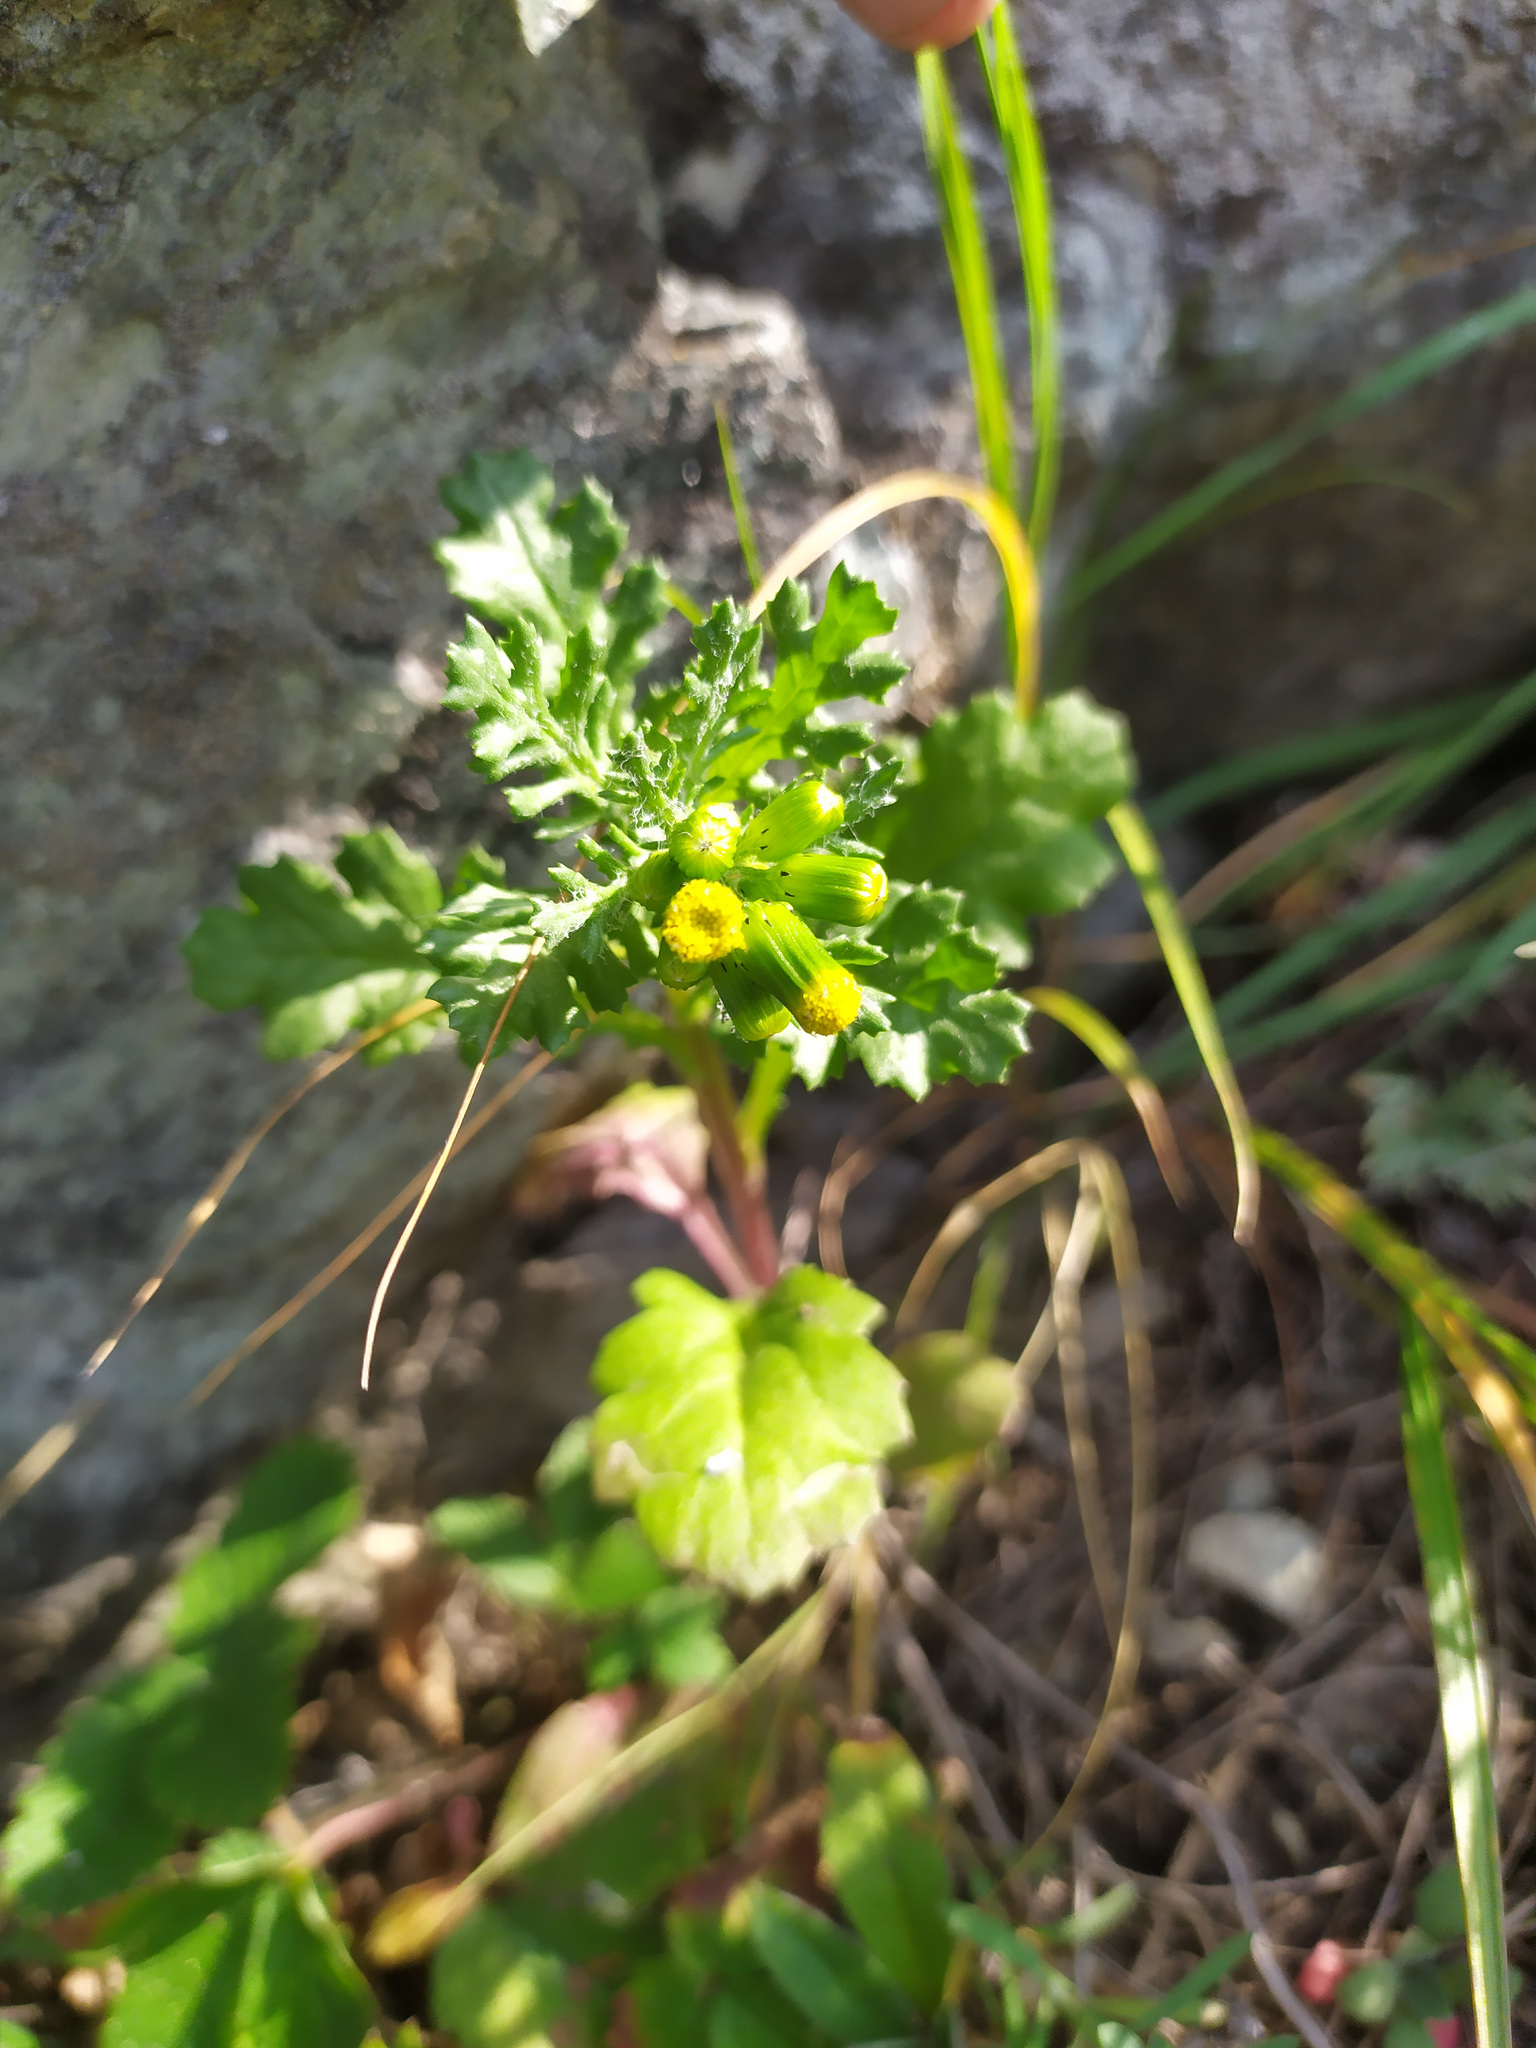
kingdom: Plantae
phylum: Tracheophyta
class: Magnoliopsida
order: Asterales
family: Asteraceae
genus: Senecio
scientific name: Senecio vulgaris
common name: Old-man-in-the-spring
